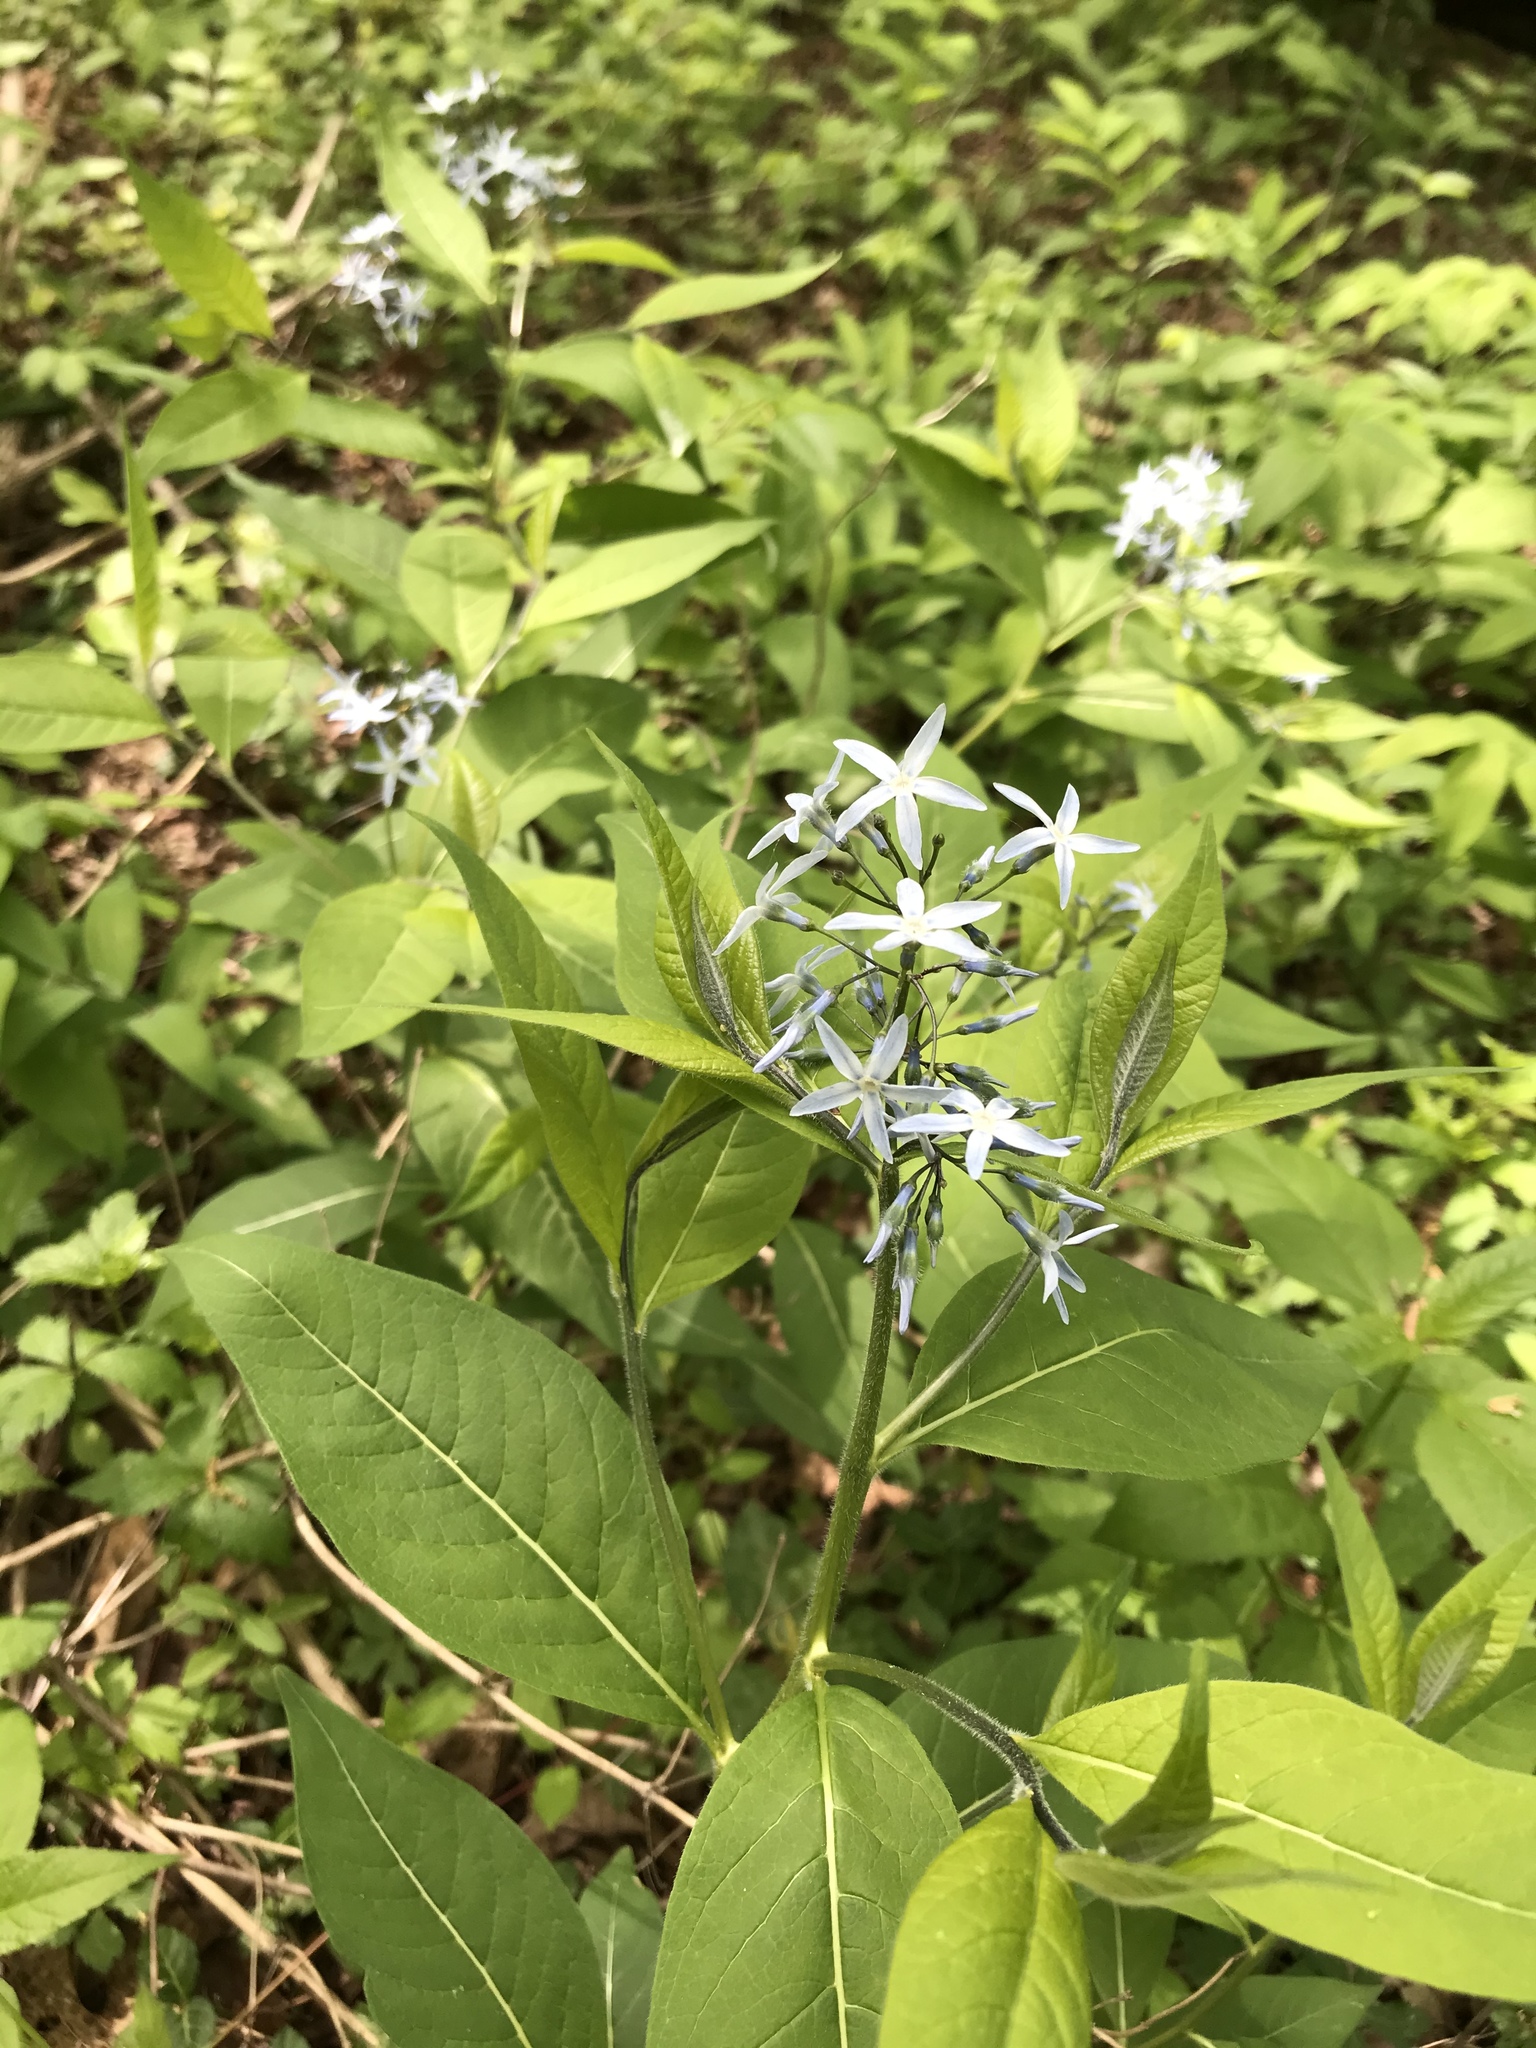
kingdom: Plantae
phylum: Tracheophyta
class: Magnoliopsida
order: Gentianales
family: Apocynaceae
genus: Amsonia
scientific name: Amsonia tabernaemontana
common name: Texas-star
